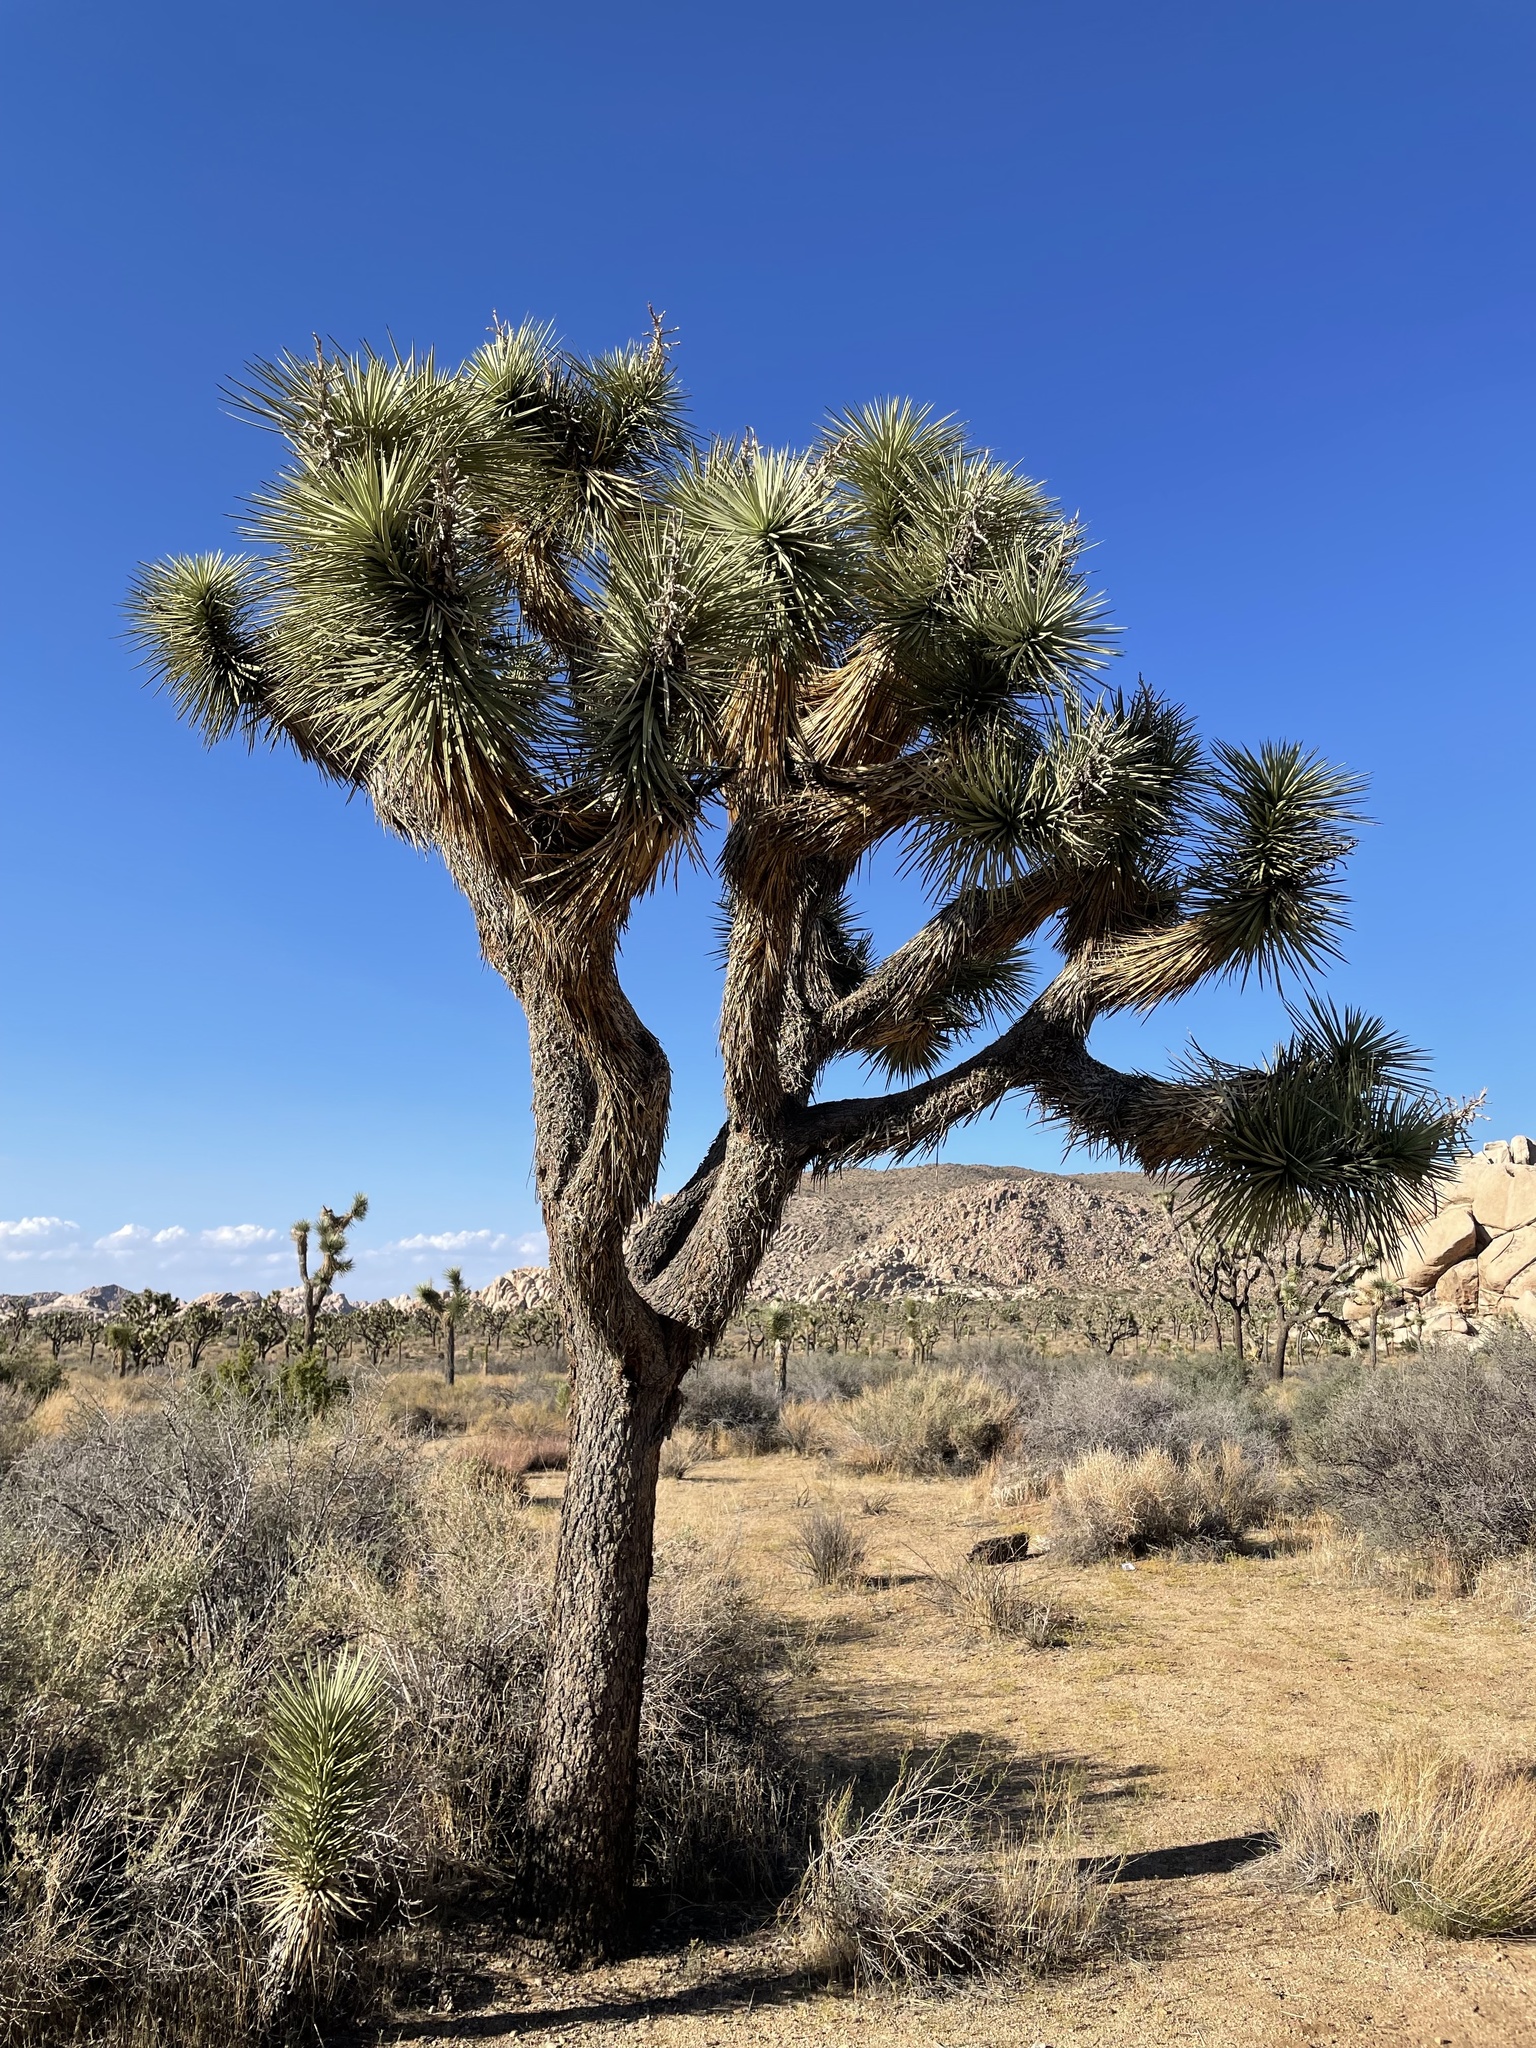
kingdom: Plantae
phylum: Tracheophyta
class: Liliopsida
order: Asparagales
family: Asparagaceae
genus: Yucca
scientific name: Yucca brevifolia
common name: Joshua tree
